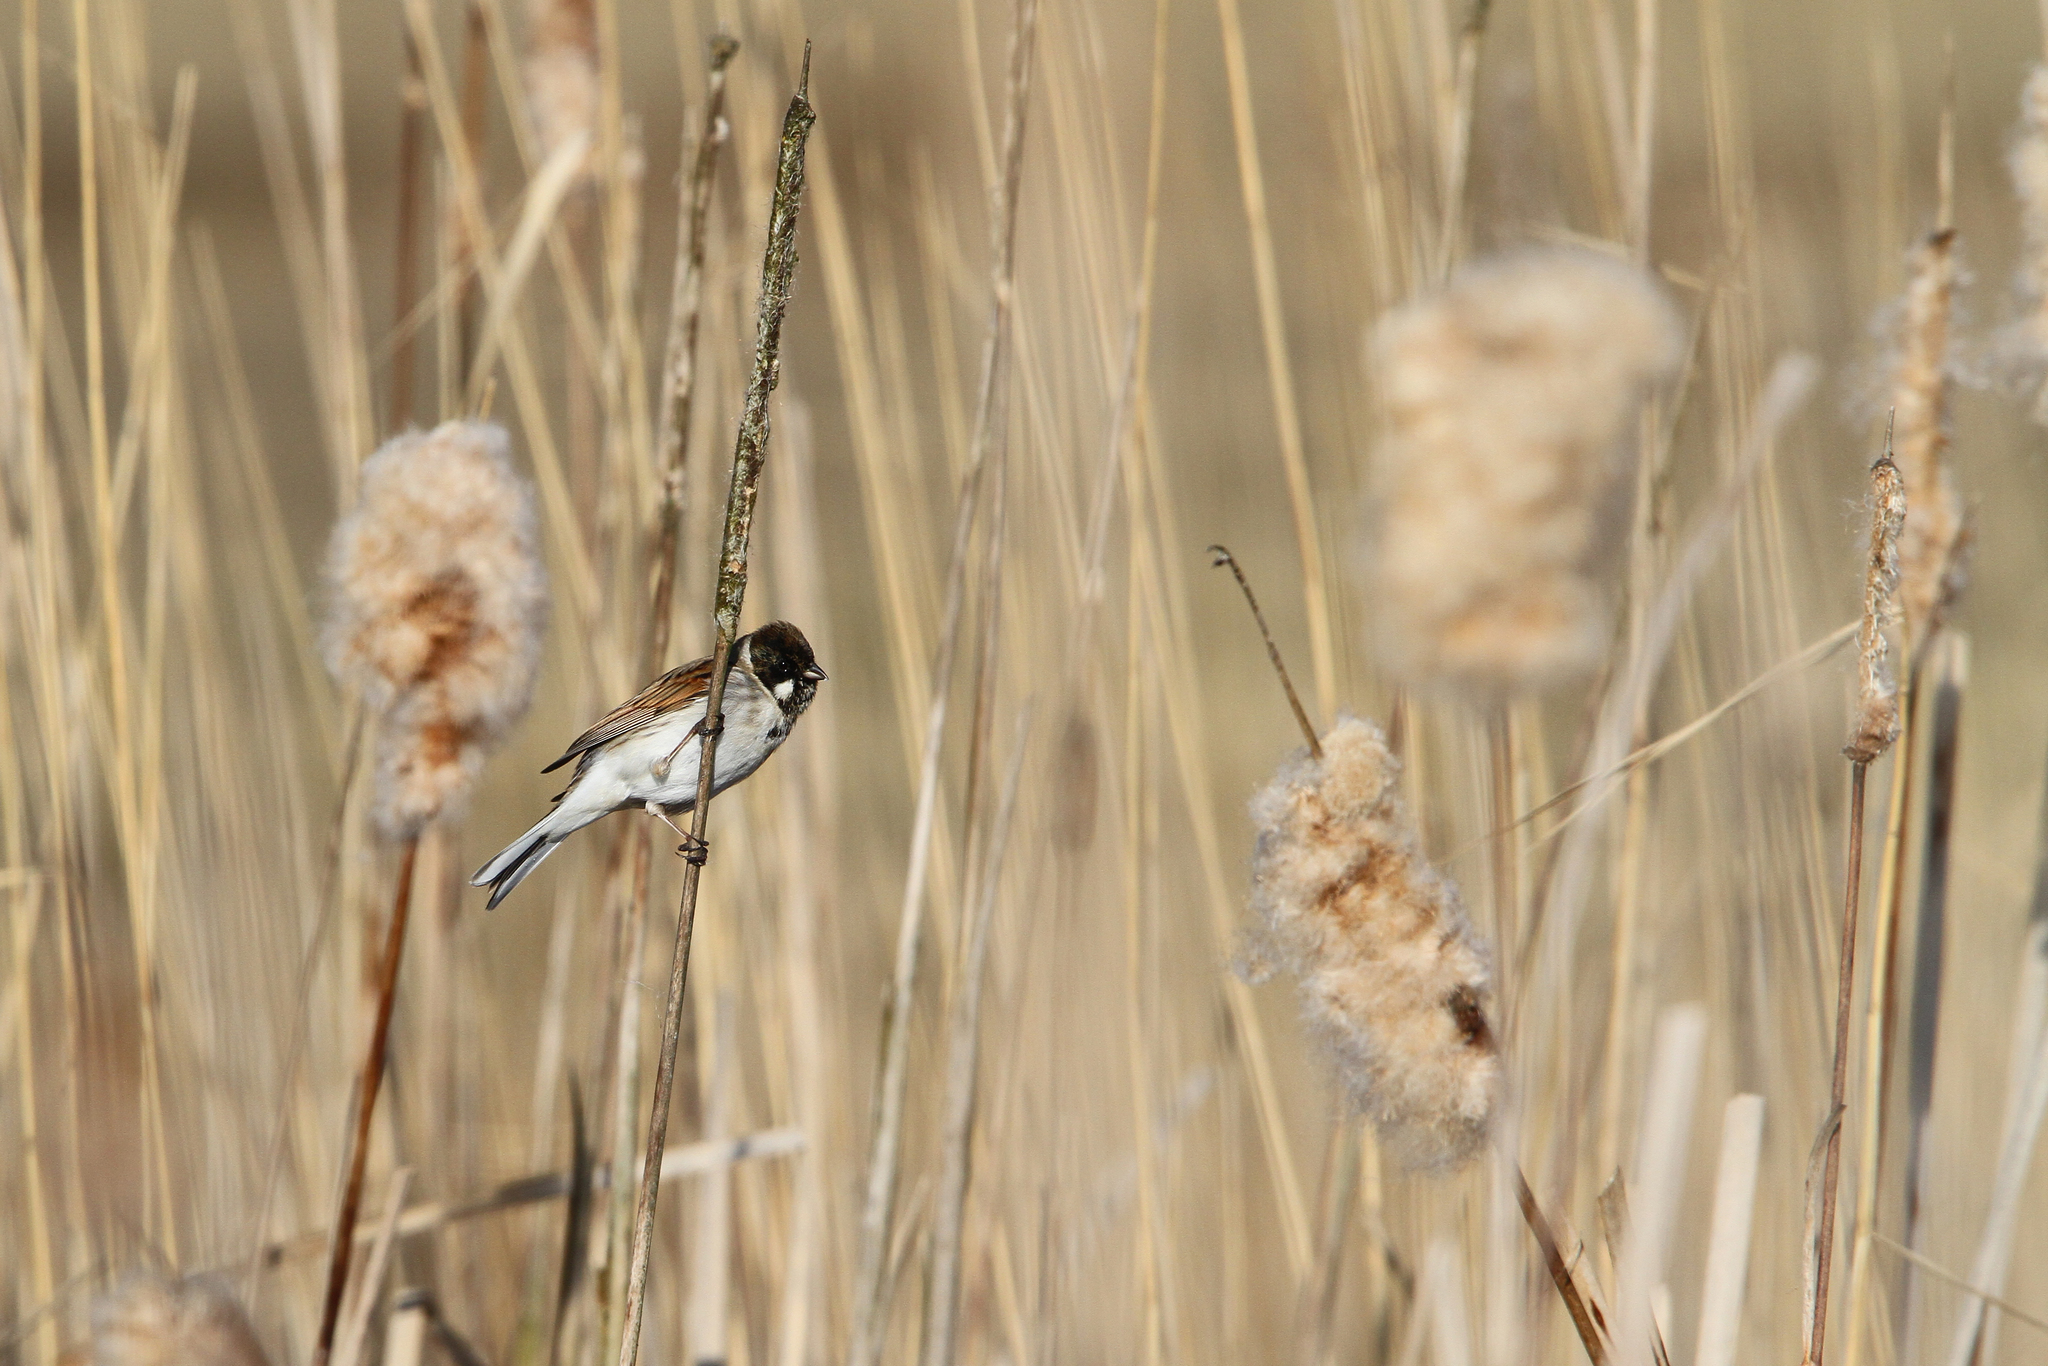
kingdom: Animalia
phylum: Chordata
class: Aves
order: Passeriformes
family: Emberizidae
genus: Emberiza
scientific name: Emberiza schoeniclus
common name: Reed bunting
